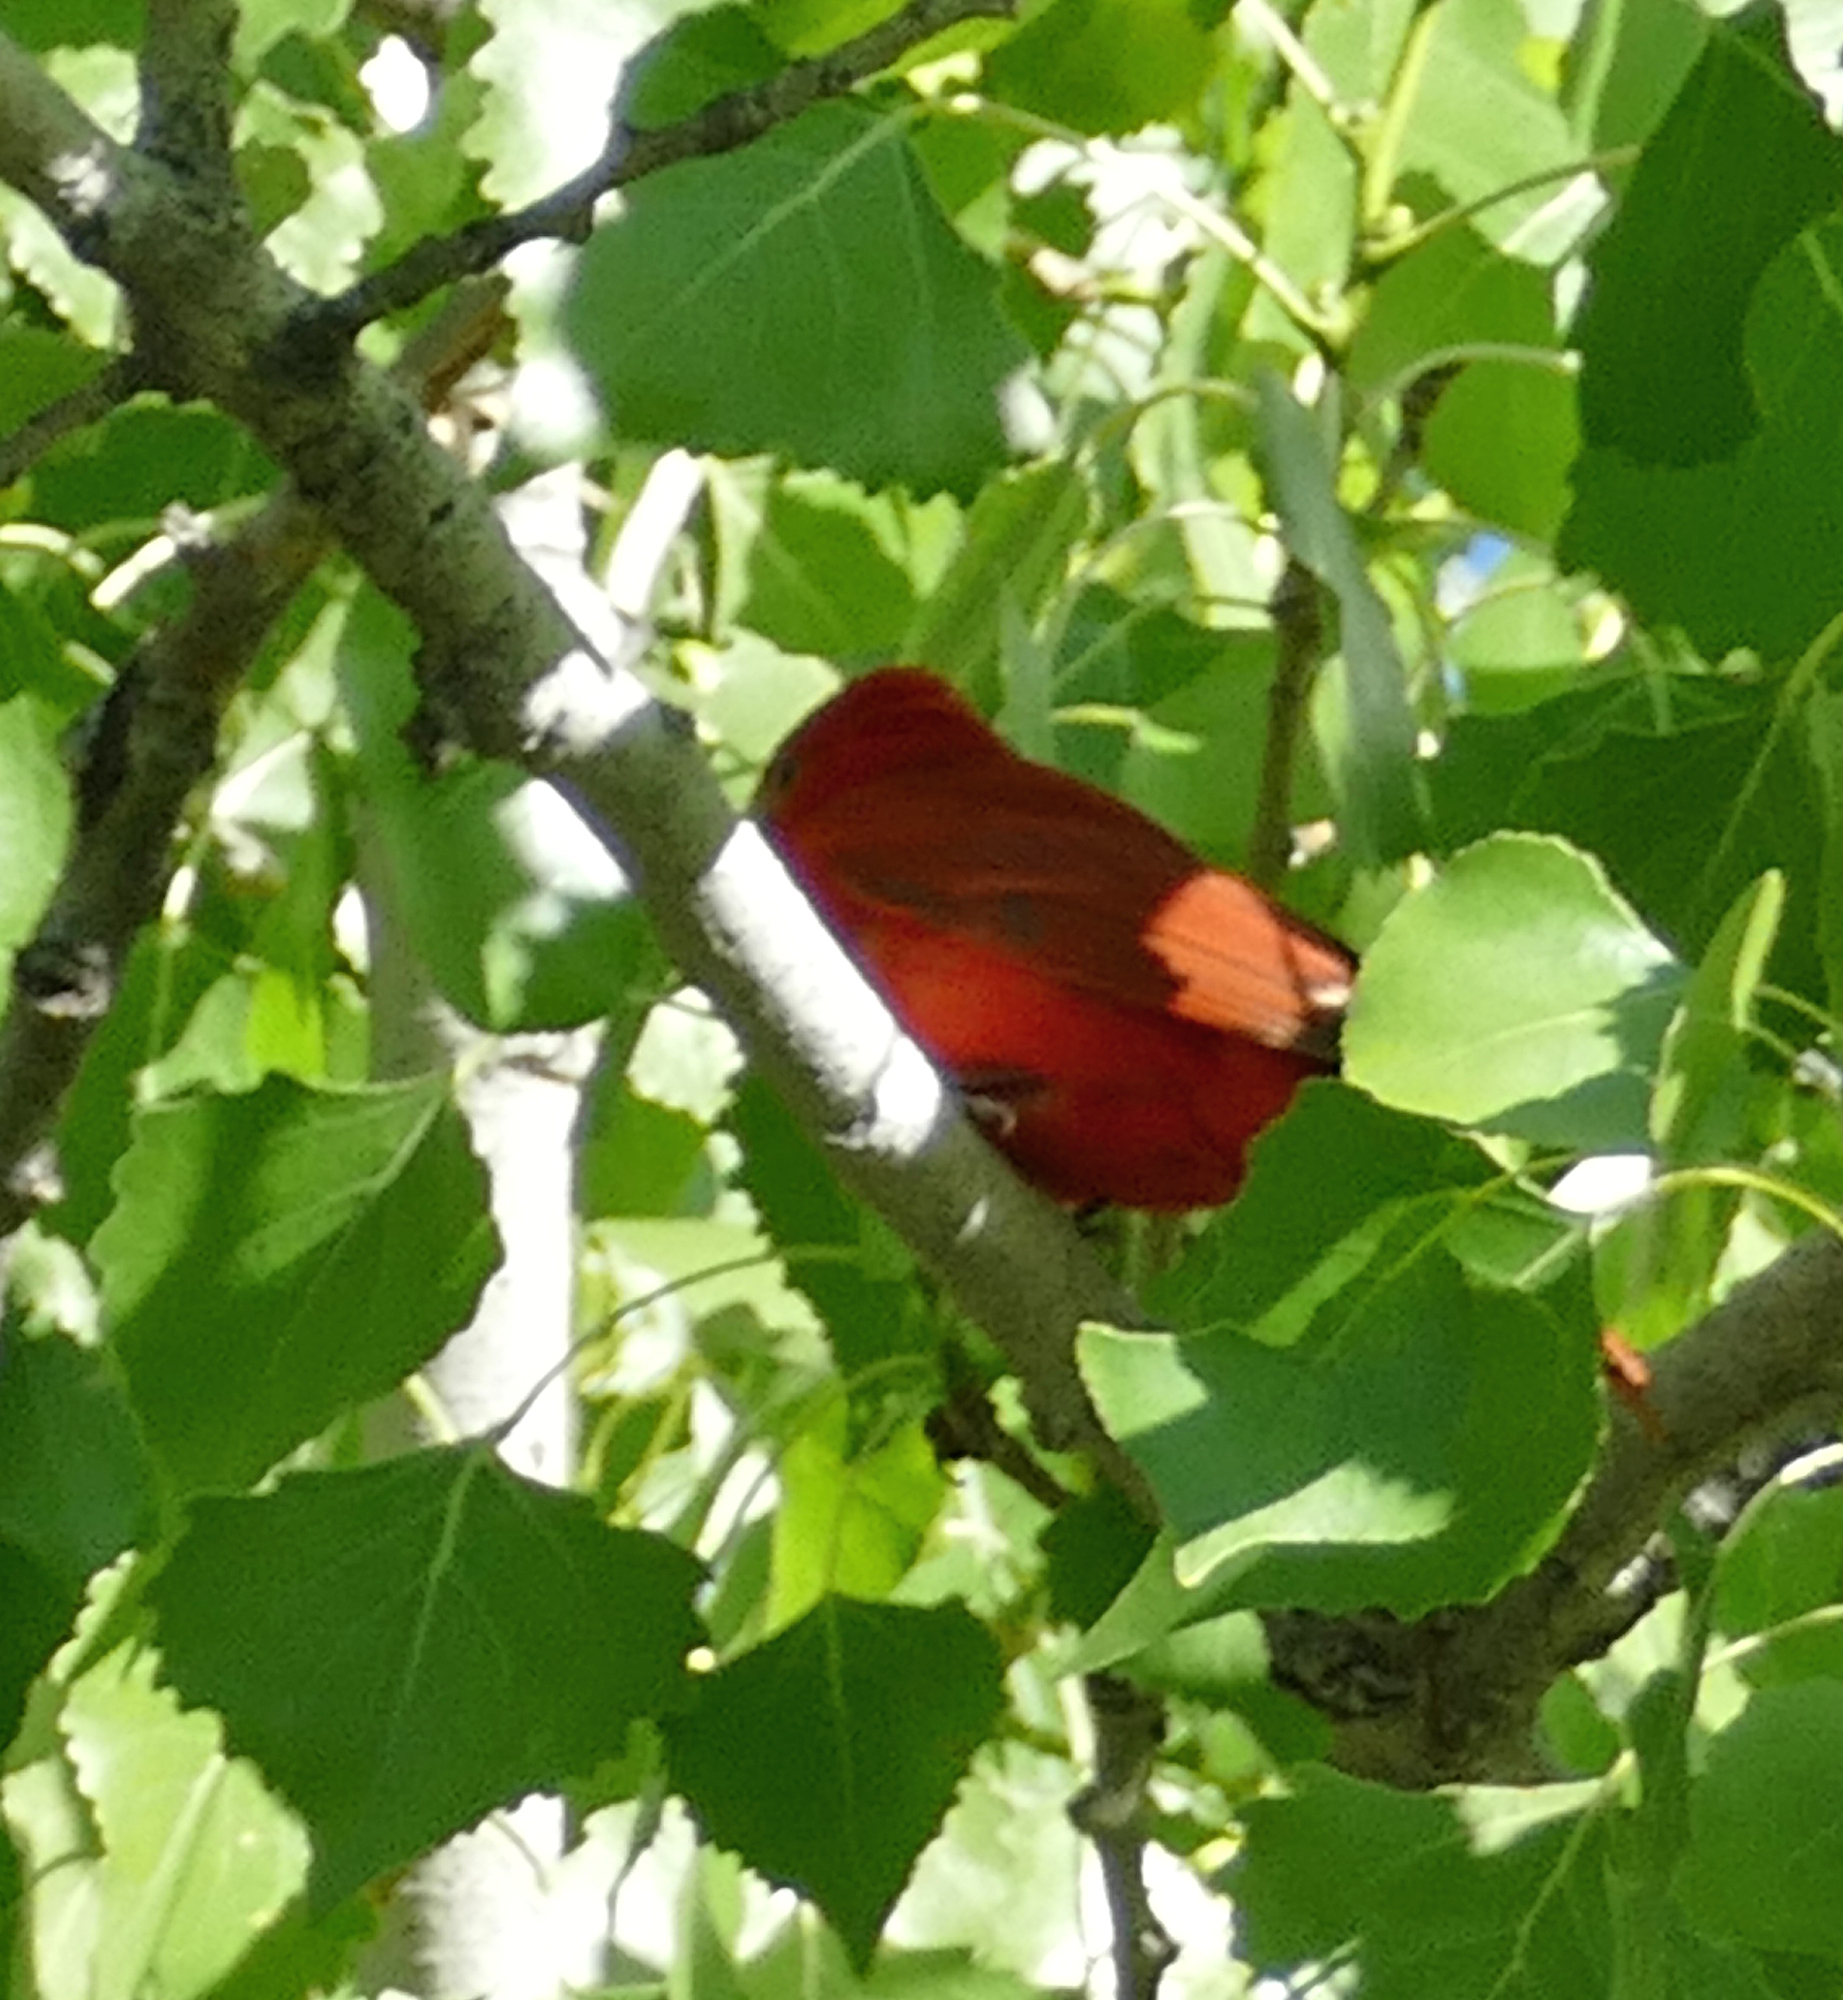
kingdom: Animalia
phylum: Chordata
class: Aves
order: Passeriformes
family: Cardinalidae
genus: Piranga
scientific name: Piranga rubra
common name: Summer tanager
